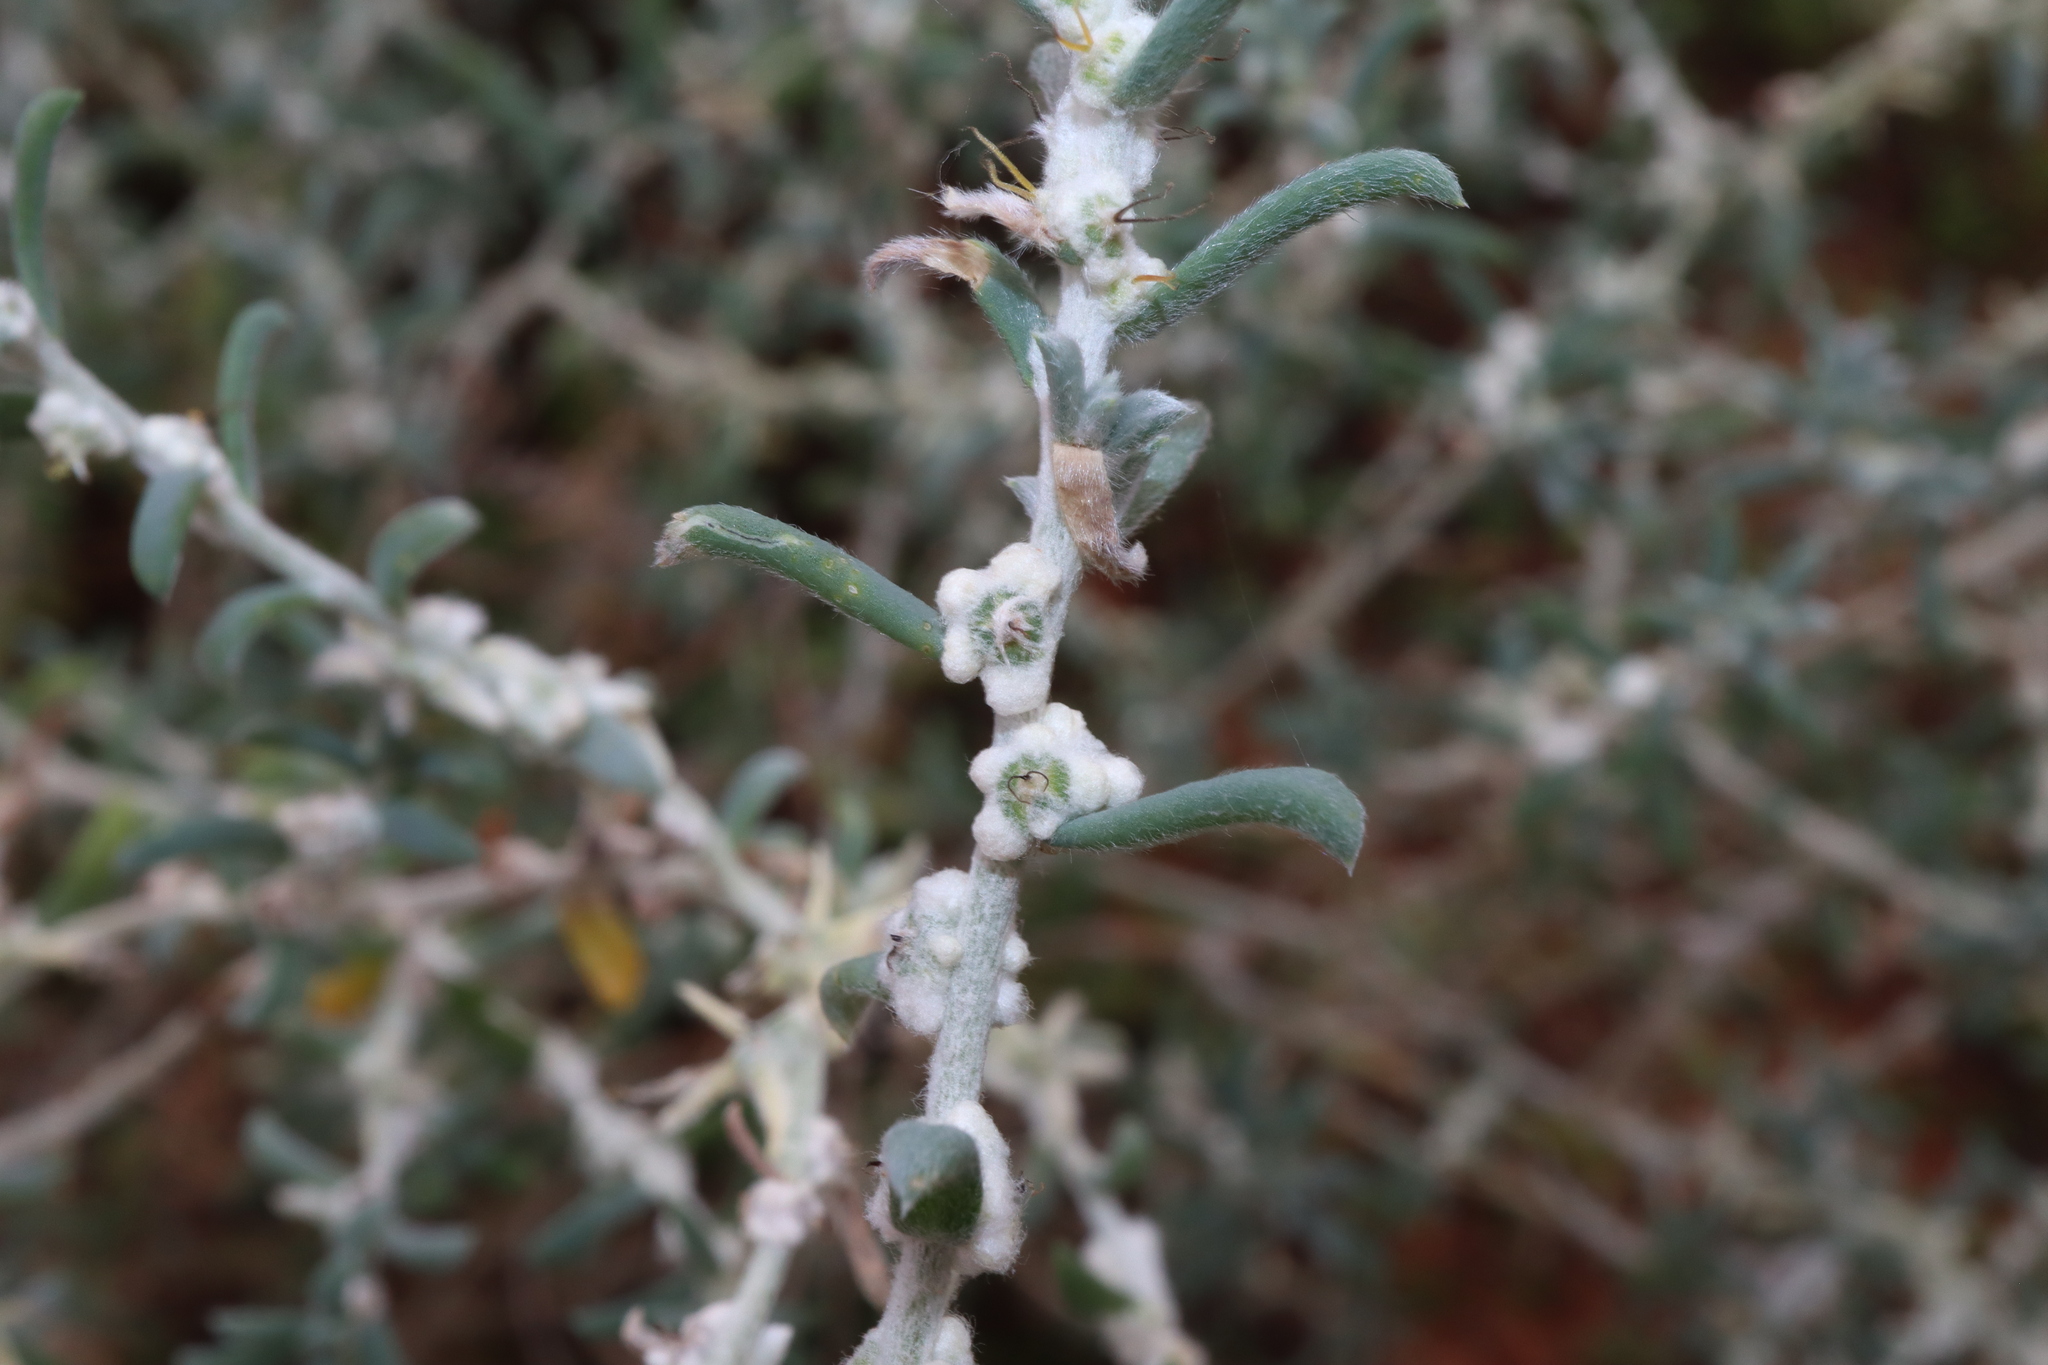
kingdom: Plantae
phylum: Tracheophyta
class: Magnoliopsida
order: Caryophyllales
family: Amaranthaceae
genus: Maireana
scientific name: Maireana sclerolaenoides
